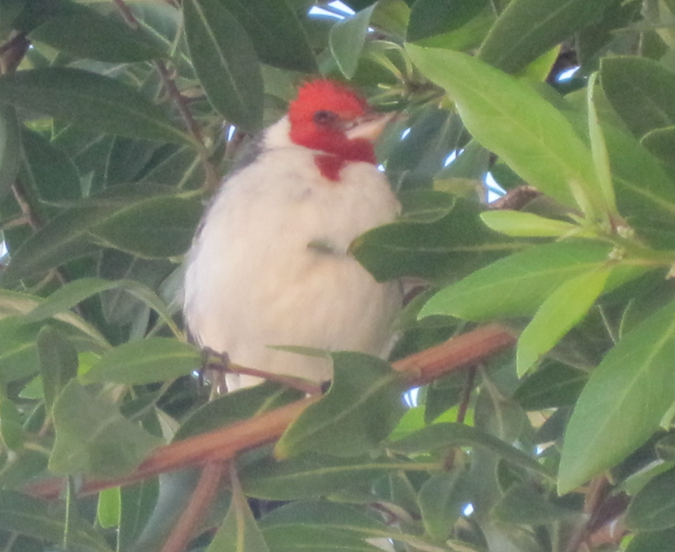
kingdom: Animalia
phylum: Chordata
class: Aves
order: Passeriformes
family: Thraupidae
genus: Paroaria
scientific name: Paroaria coronata
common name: Red-crested cardinal
